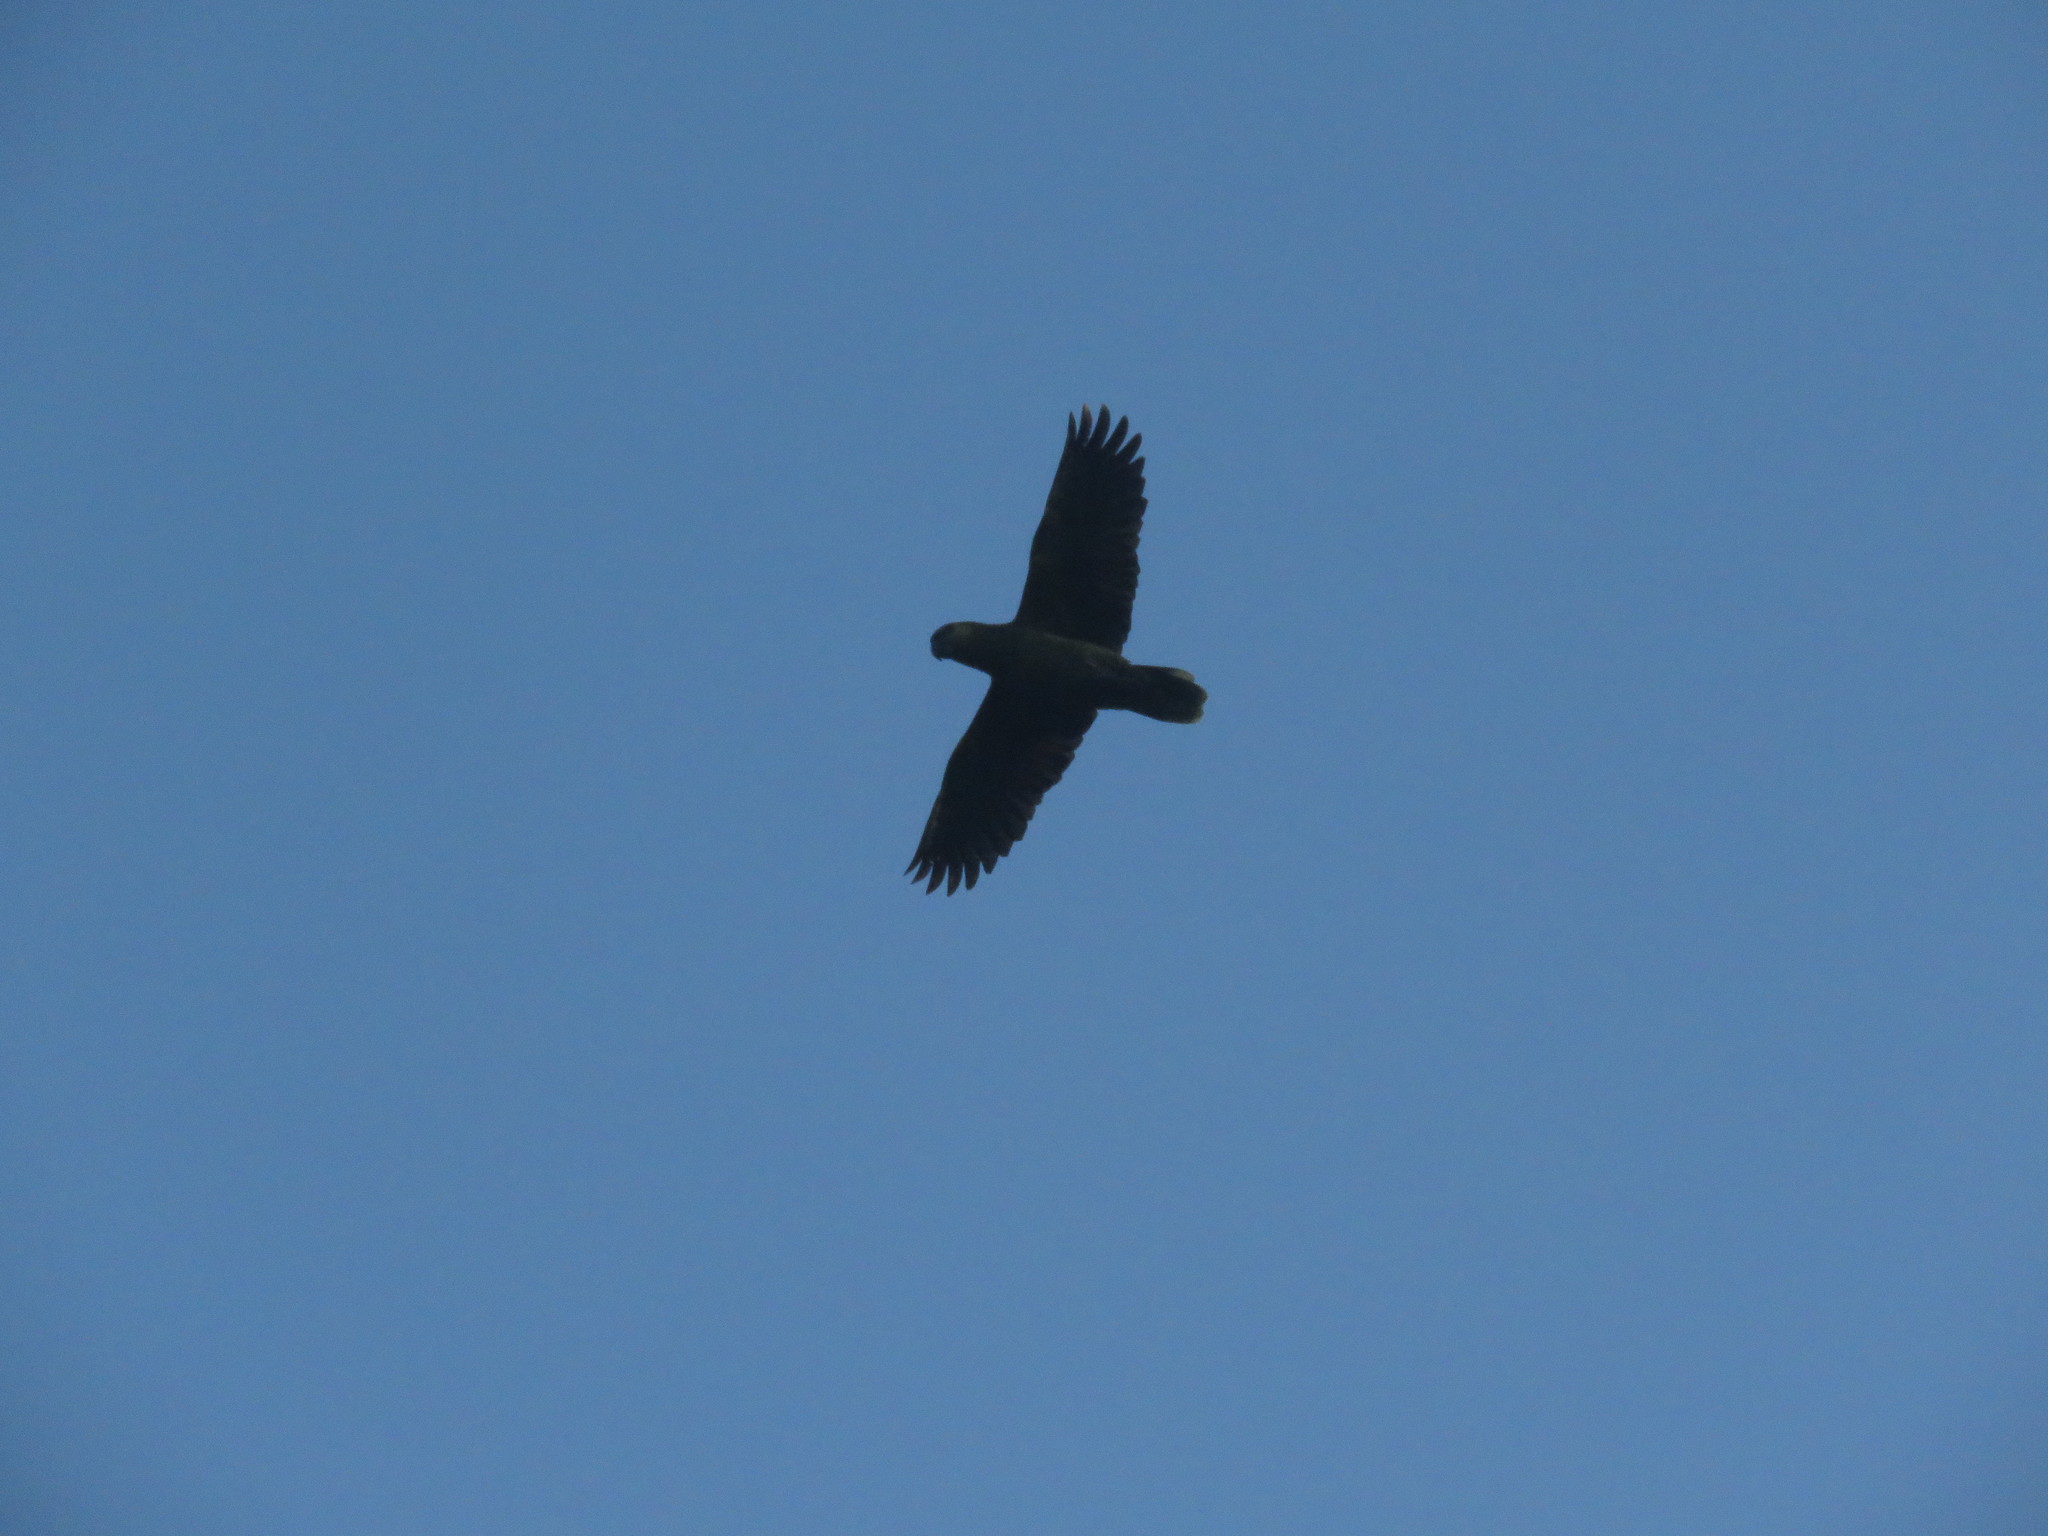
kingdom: Animalia
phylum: Chordata
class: Aves
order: Psittaciformes
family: Psittacidae
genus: Amazona
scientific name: Amazona aestiva
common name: Turquoise-fronted amazon
